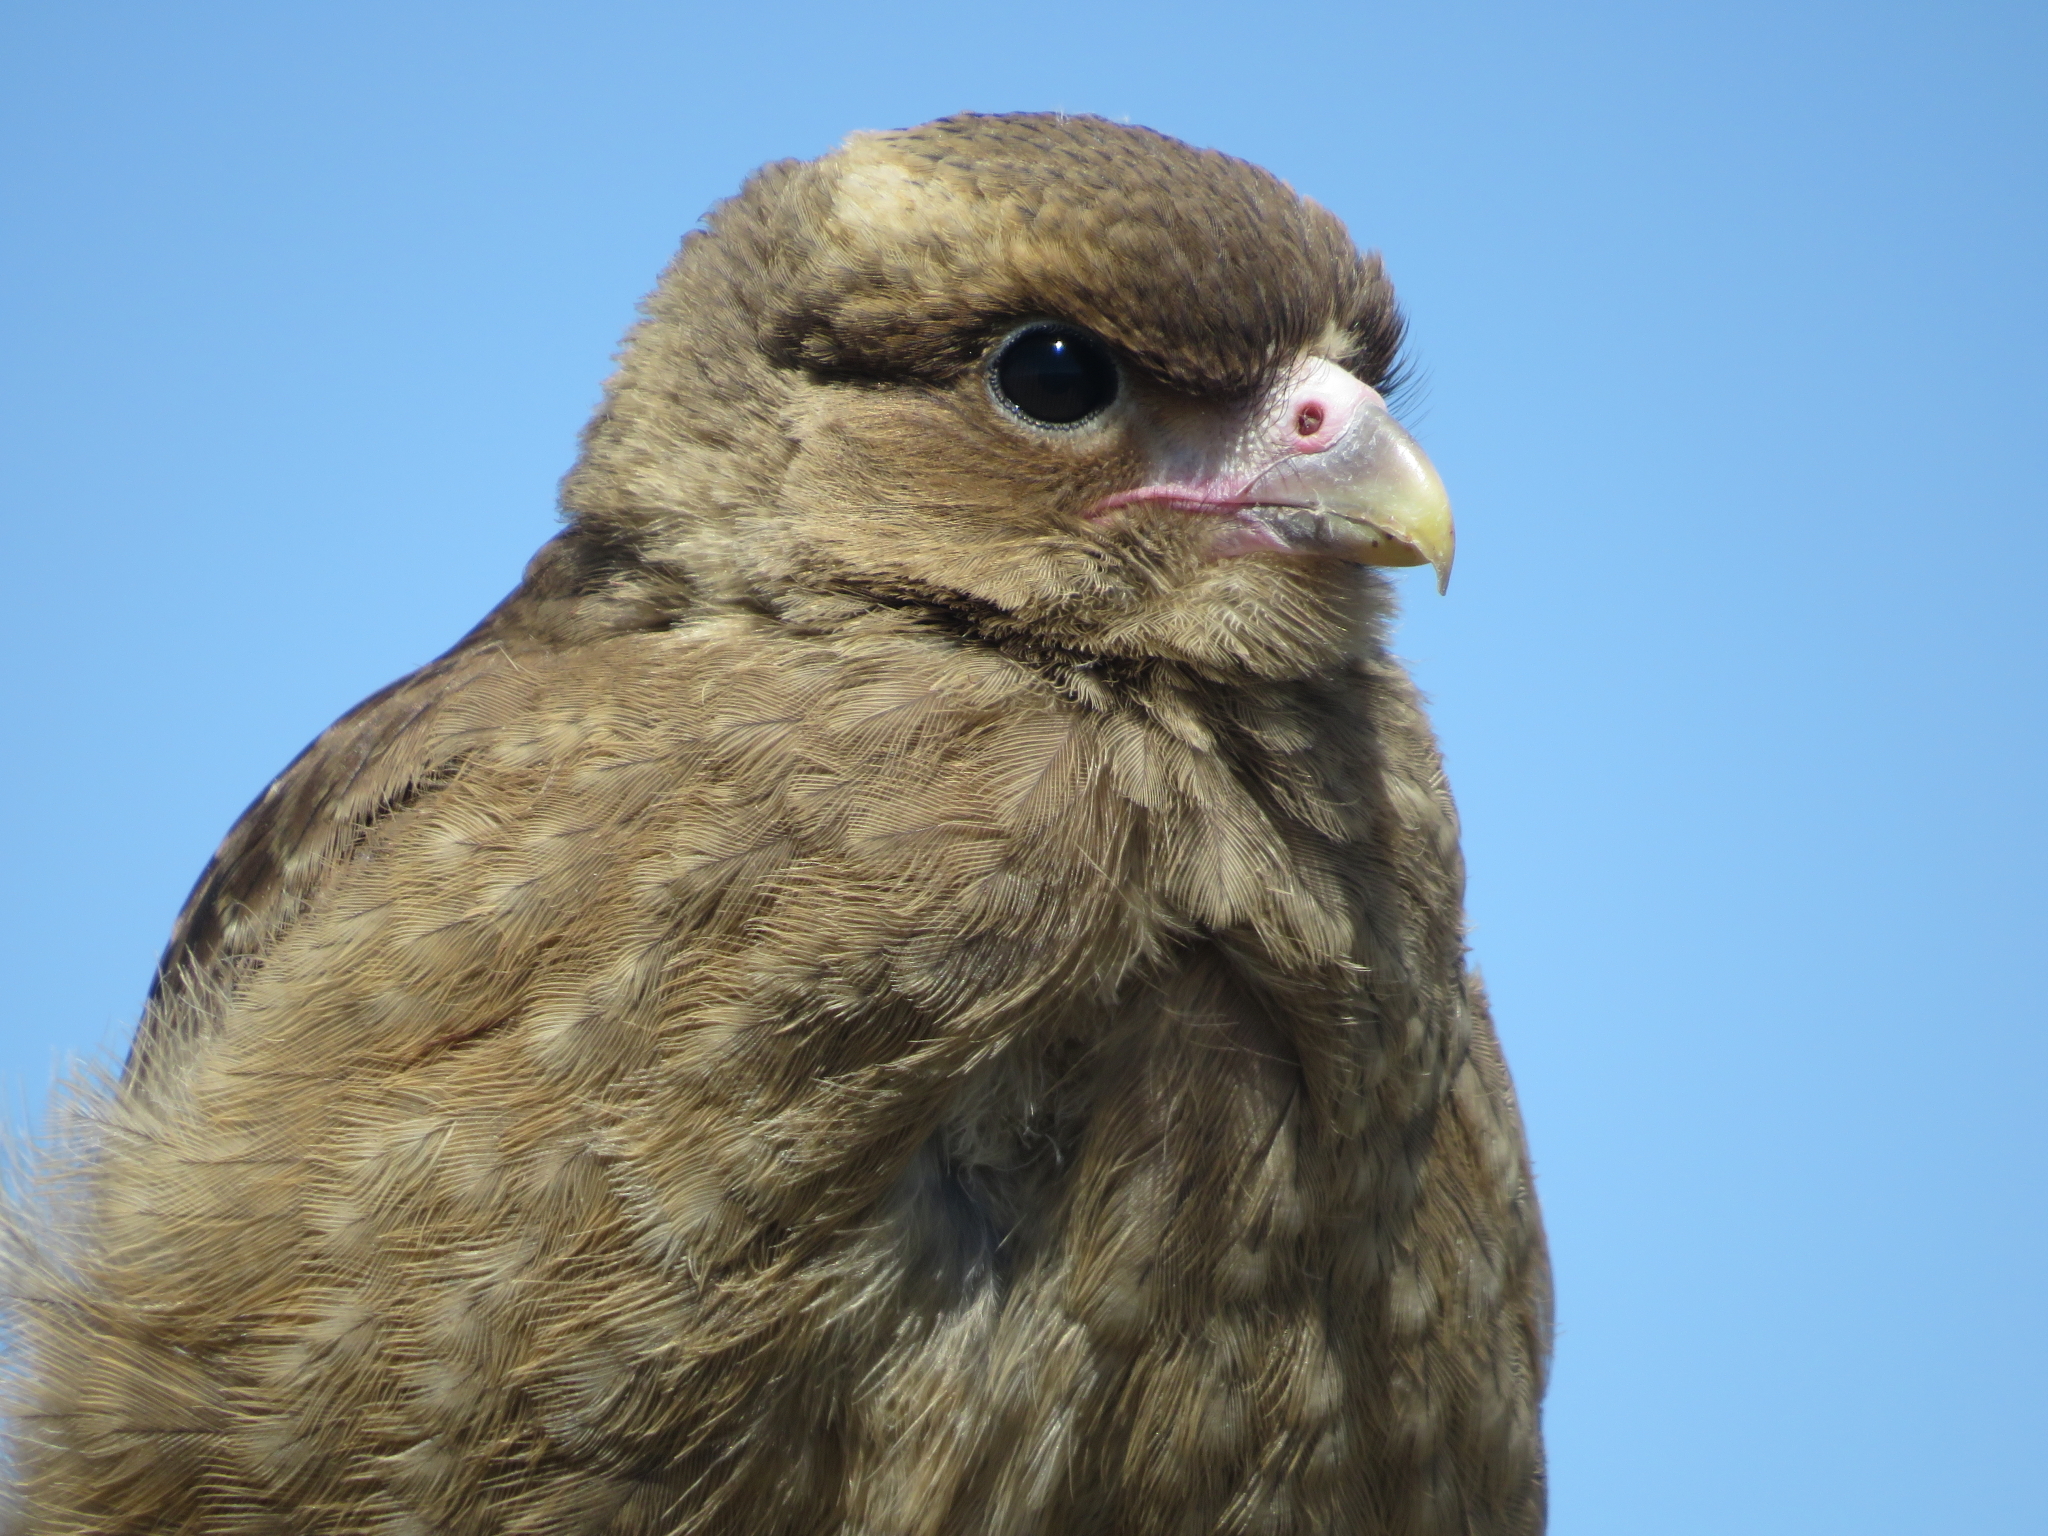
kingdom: Animalia
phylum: Chordata
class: Aves
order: Falconiformes
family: Falconidae
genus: Daptrius
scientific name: Daptrius
